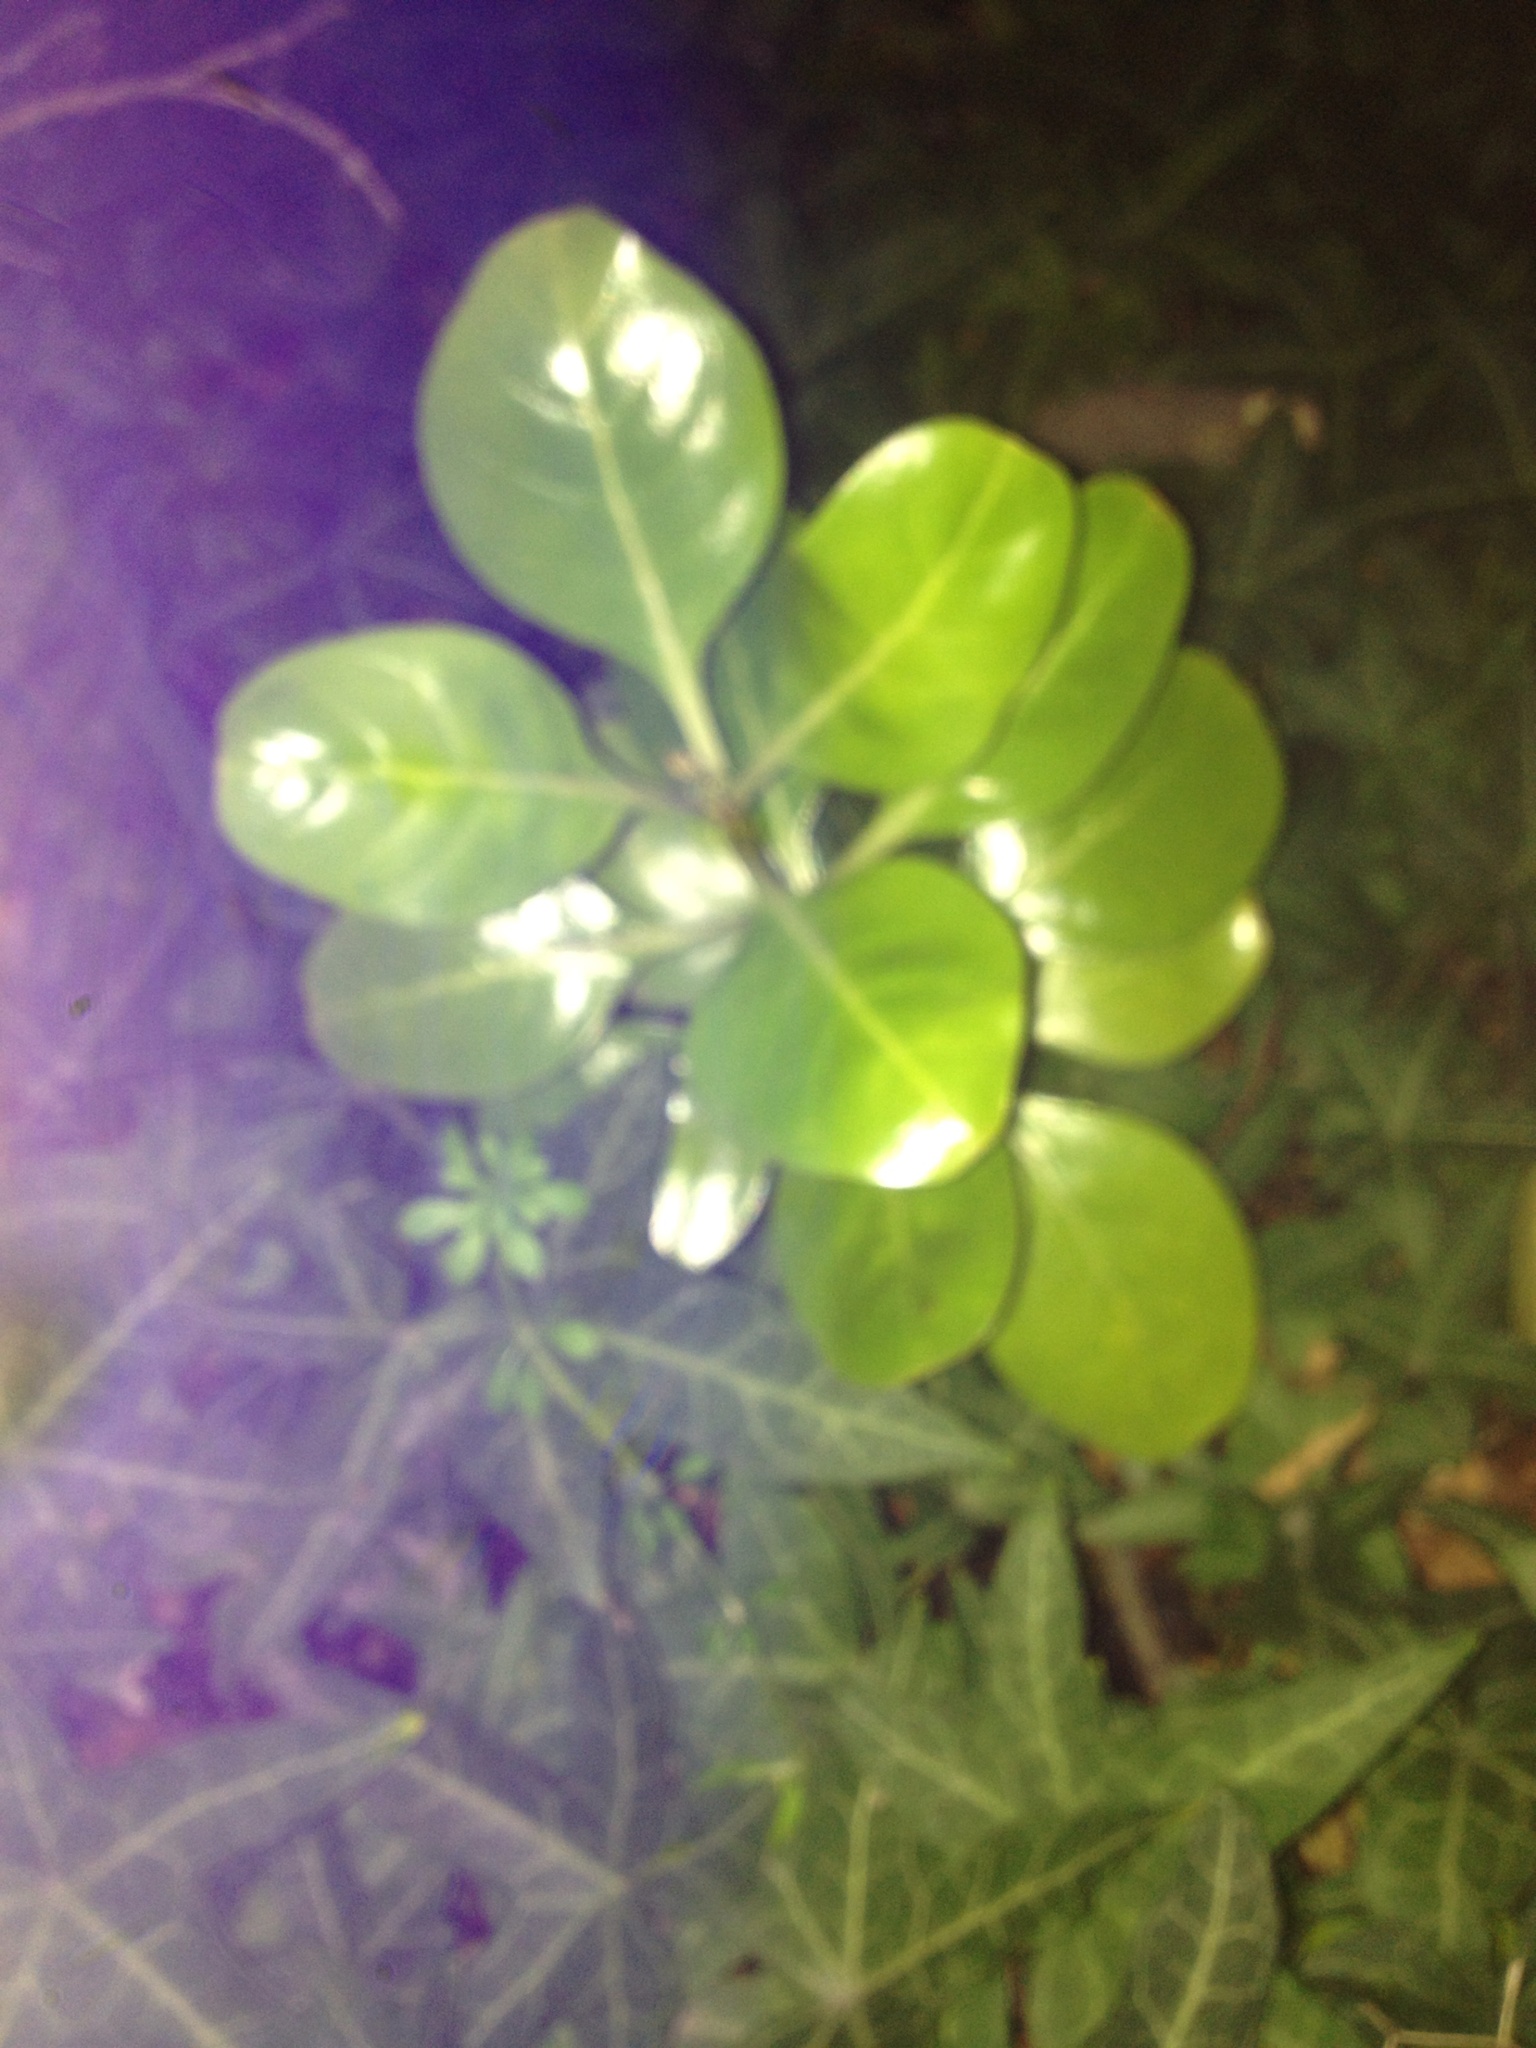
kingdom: Plantae
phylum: Tracheophyta
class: Magnoliopsida
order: Gentianales
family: Rubiaceae
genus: Coprosma
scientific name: Coprosma repens
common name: Tree bedstraw
